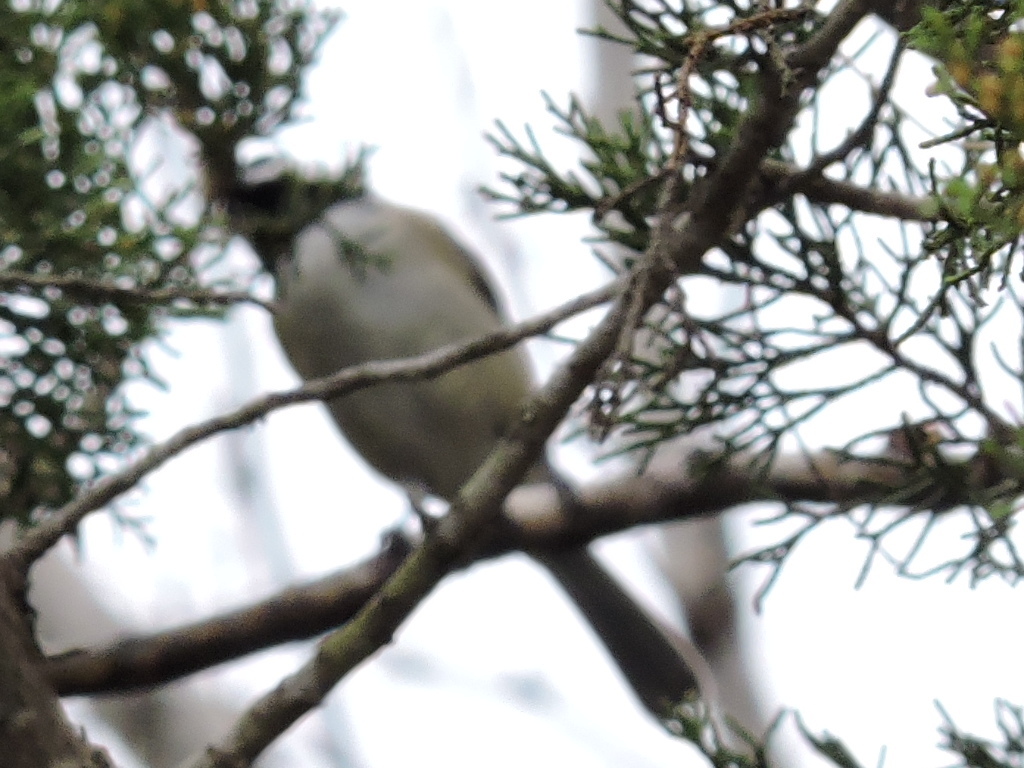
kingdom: Animalia
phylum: Chordata
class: Aves
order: Passeriformes
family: Paridae
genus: Poecile
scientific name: Poecile carolinensis
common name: Carolina chickadee
